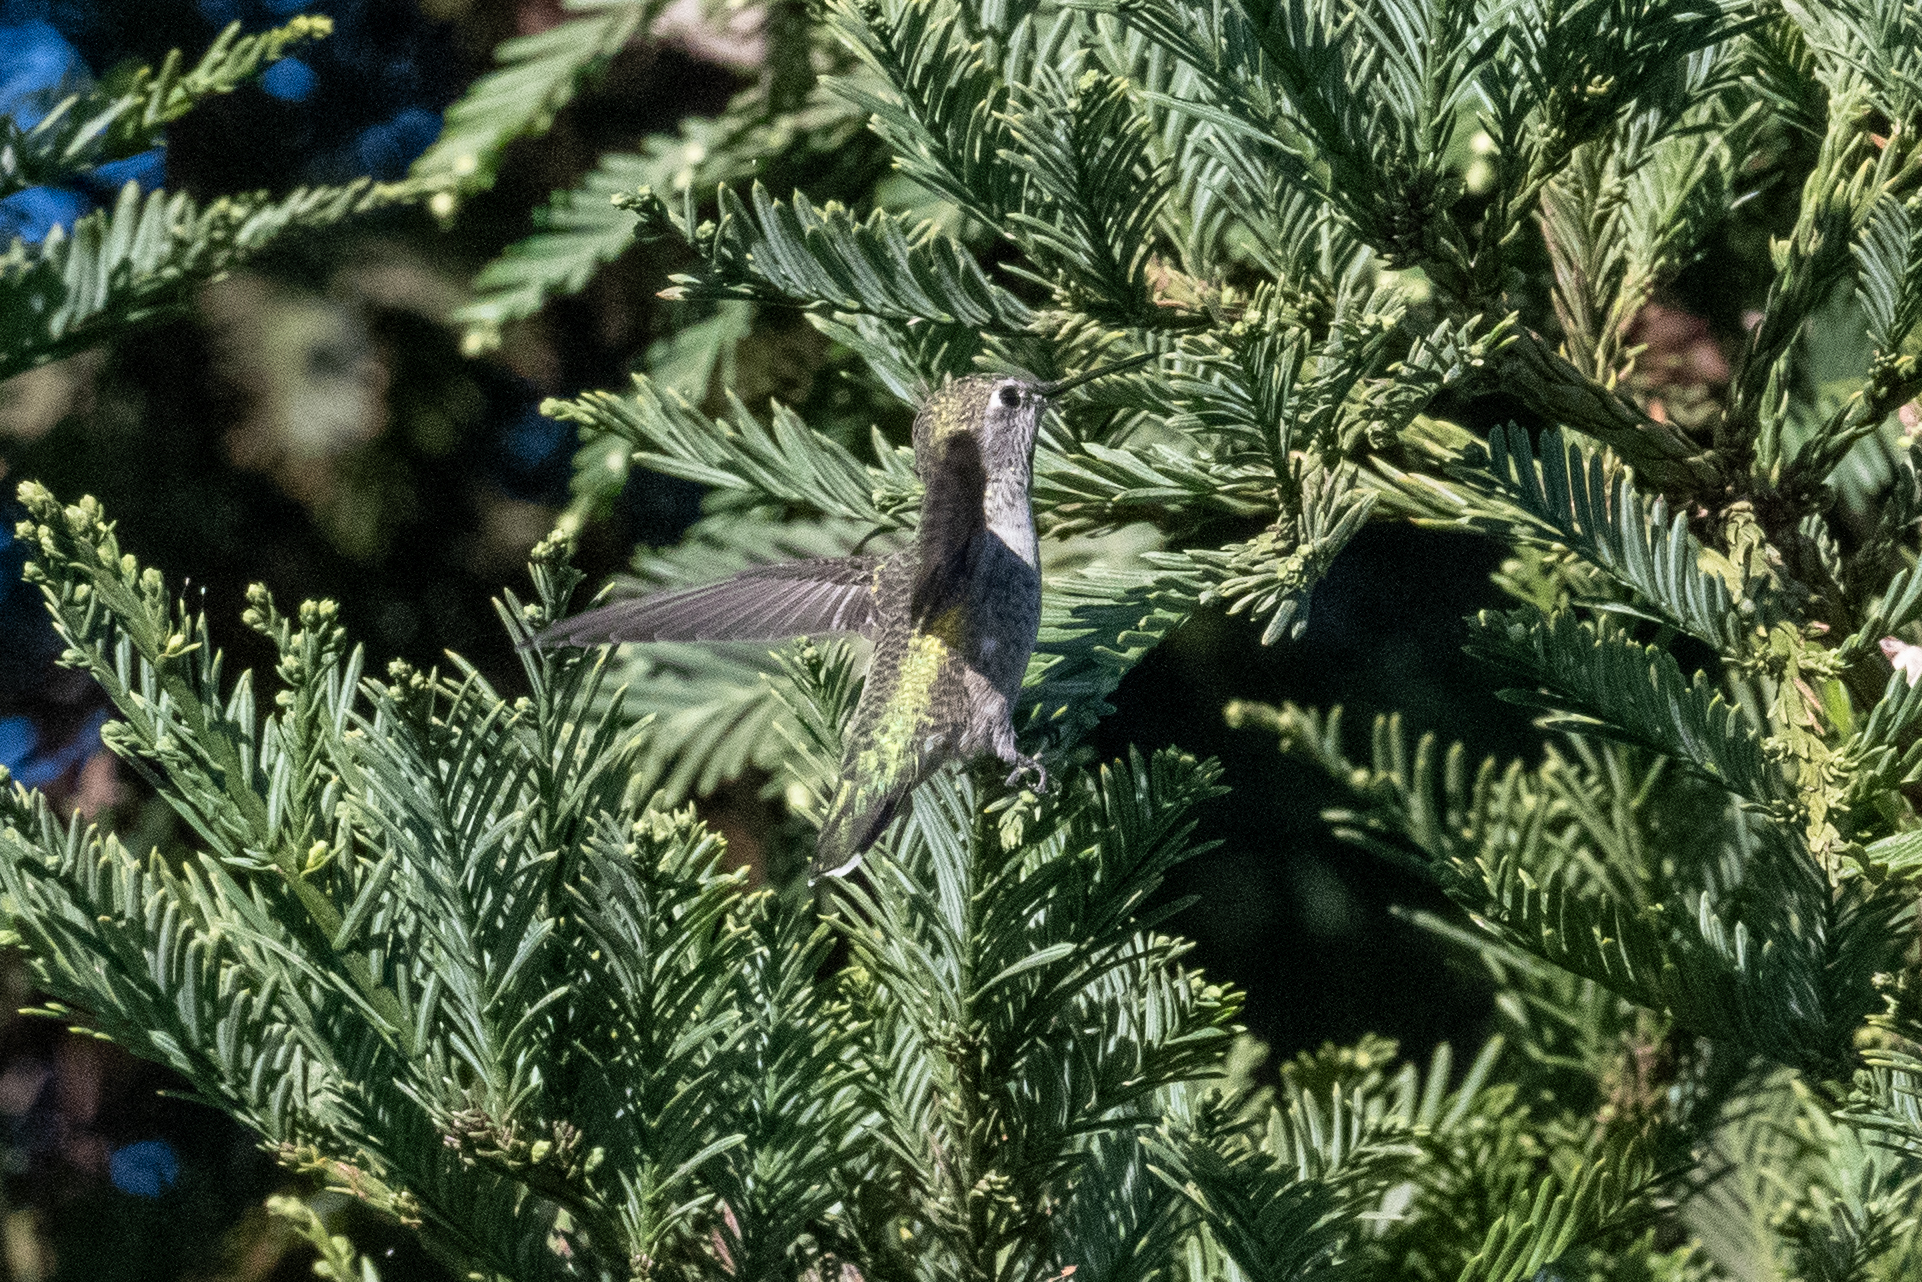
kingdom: Animalia
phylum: Chordata
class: Aves
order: Apodiformes
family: Trochilidae
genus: Calypte
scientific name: Calypte anna
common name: Anna's hummingbird
